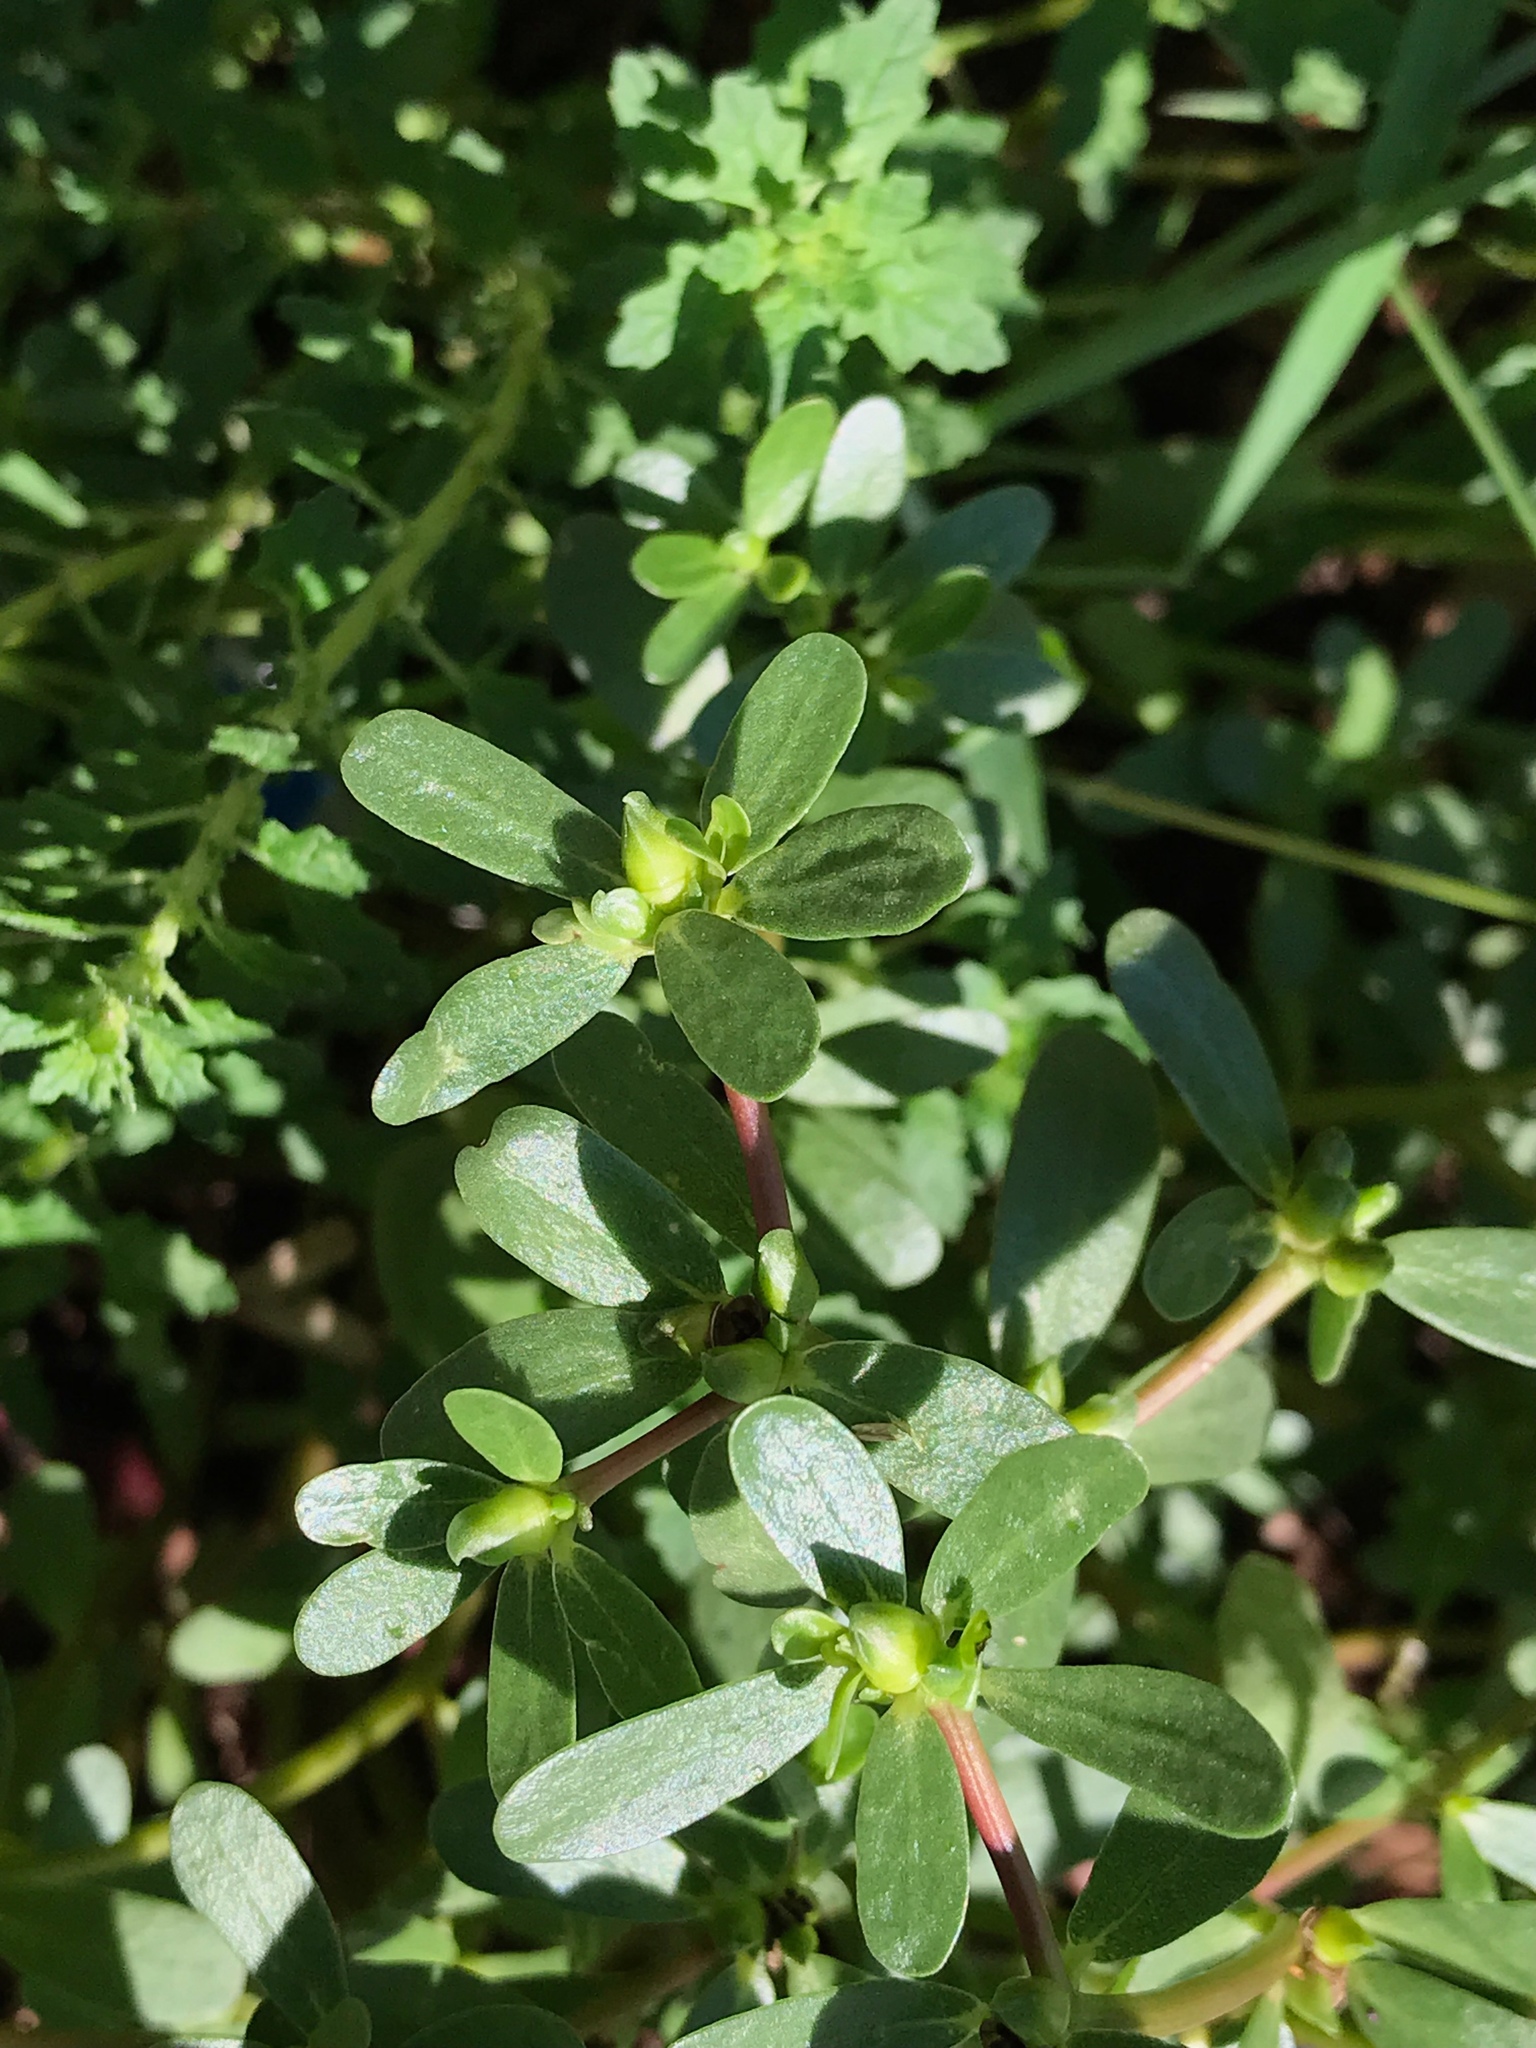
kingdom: Plantae
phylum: Tracheophyta
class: Magnoliopsida
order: Caryophyllales
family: Portulacaceae
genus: Portulaca
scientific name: Portulaca oleracea
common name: Common purslane
